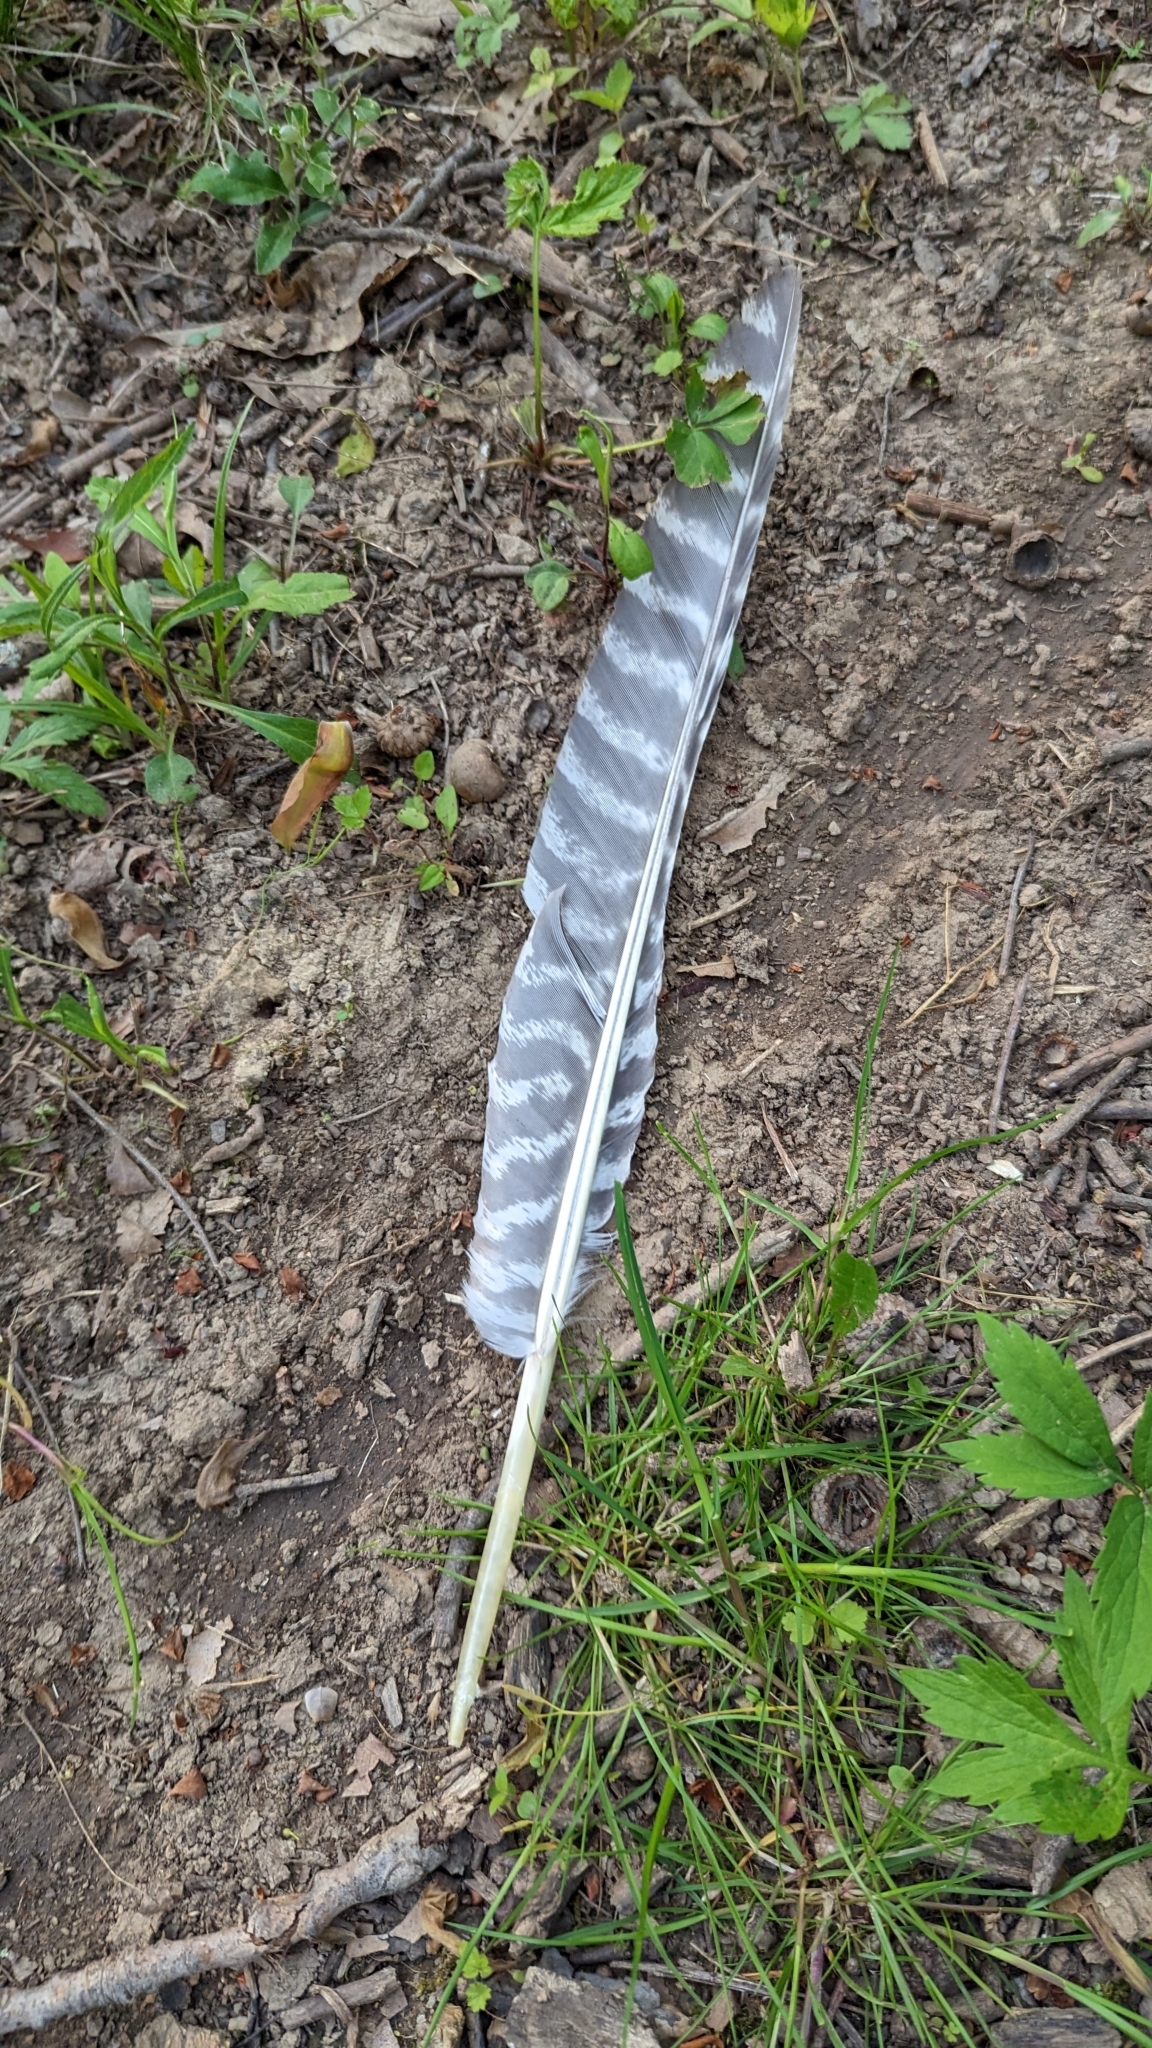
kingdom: Animalia
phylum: Chordata
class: Aves
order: Galliformes
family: Phasianidae
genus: Meleagris
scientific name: Meleagris gallopavo
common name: Wild turkey
